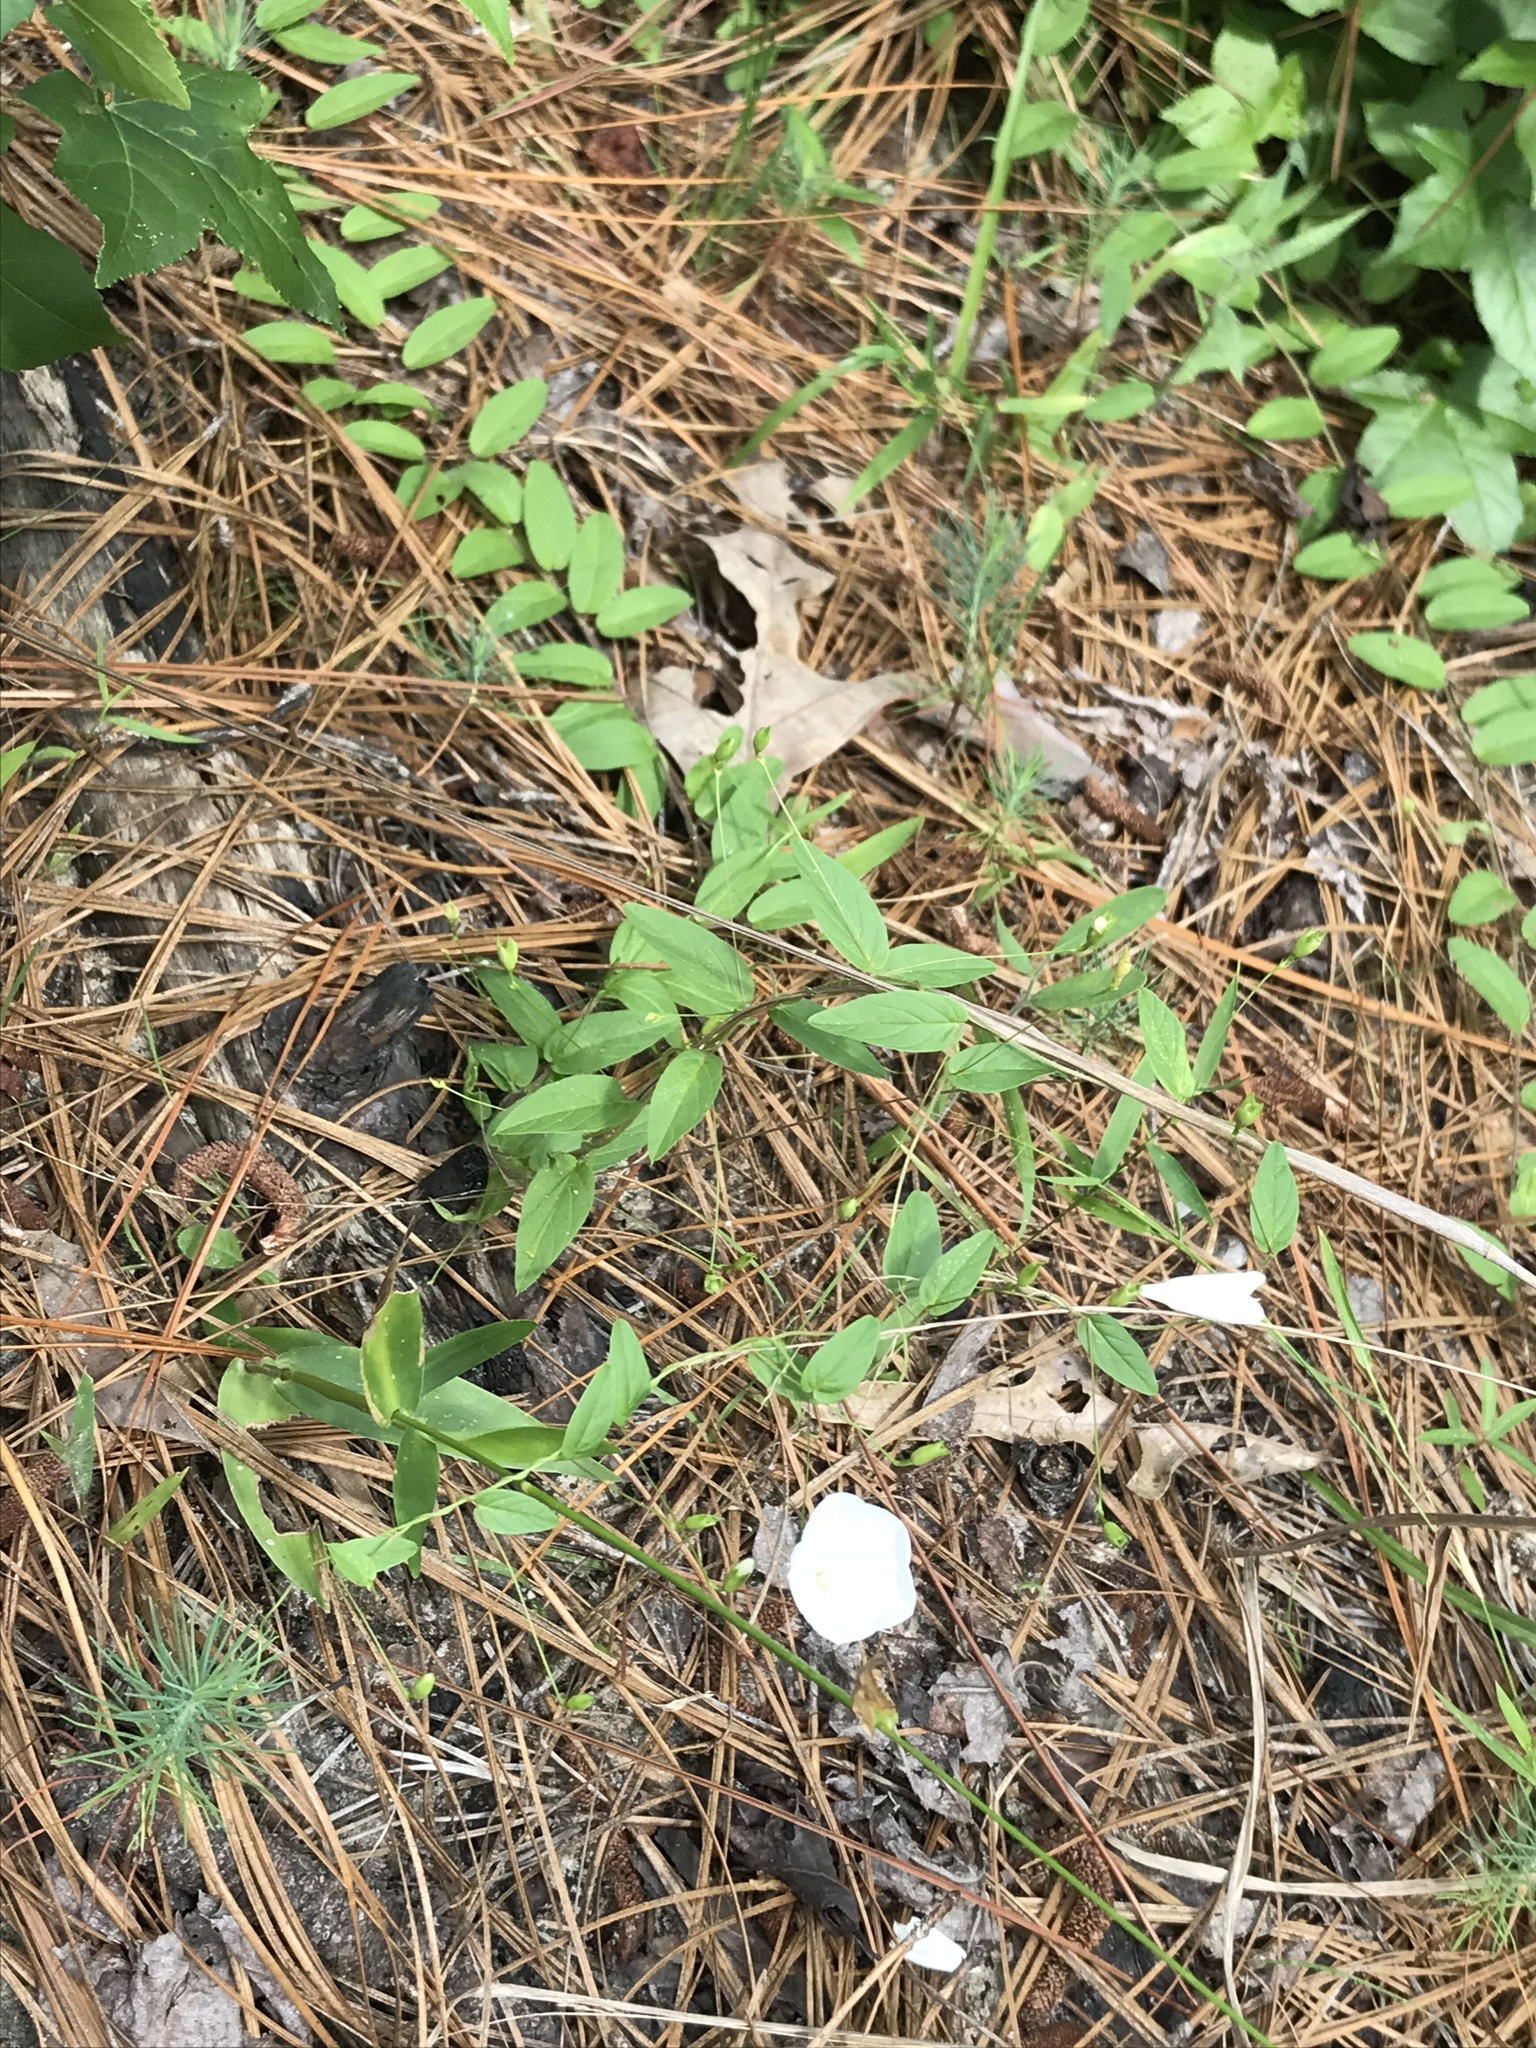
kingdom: Plantae
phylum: Tracheophyta
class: Magnoliopsida
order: Solanales
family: Convolvulaceae
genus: Stylisma
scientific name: Stylisma humistrata
